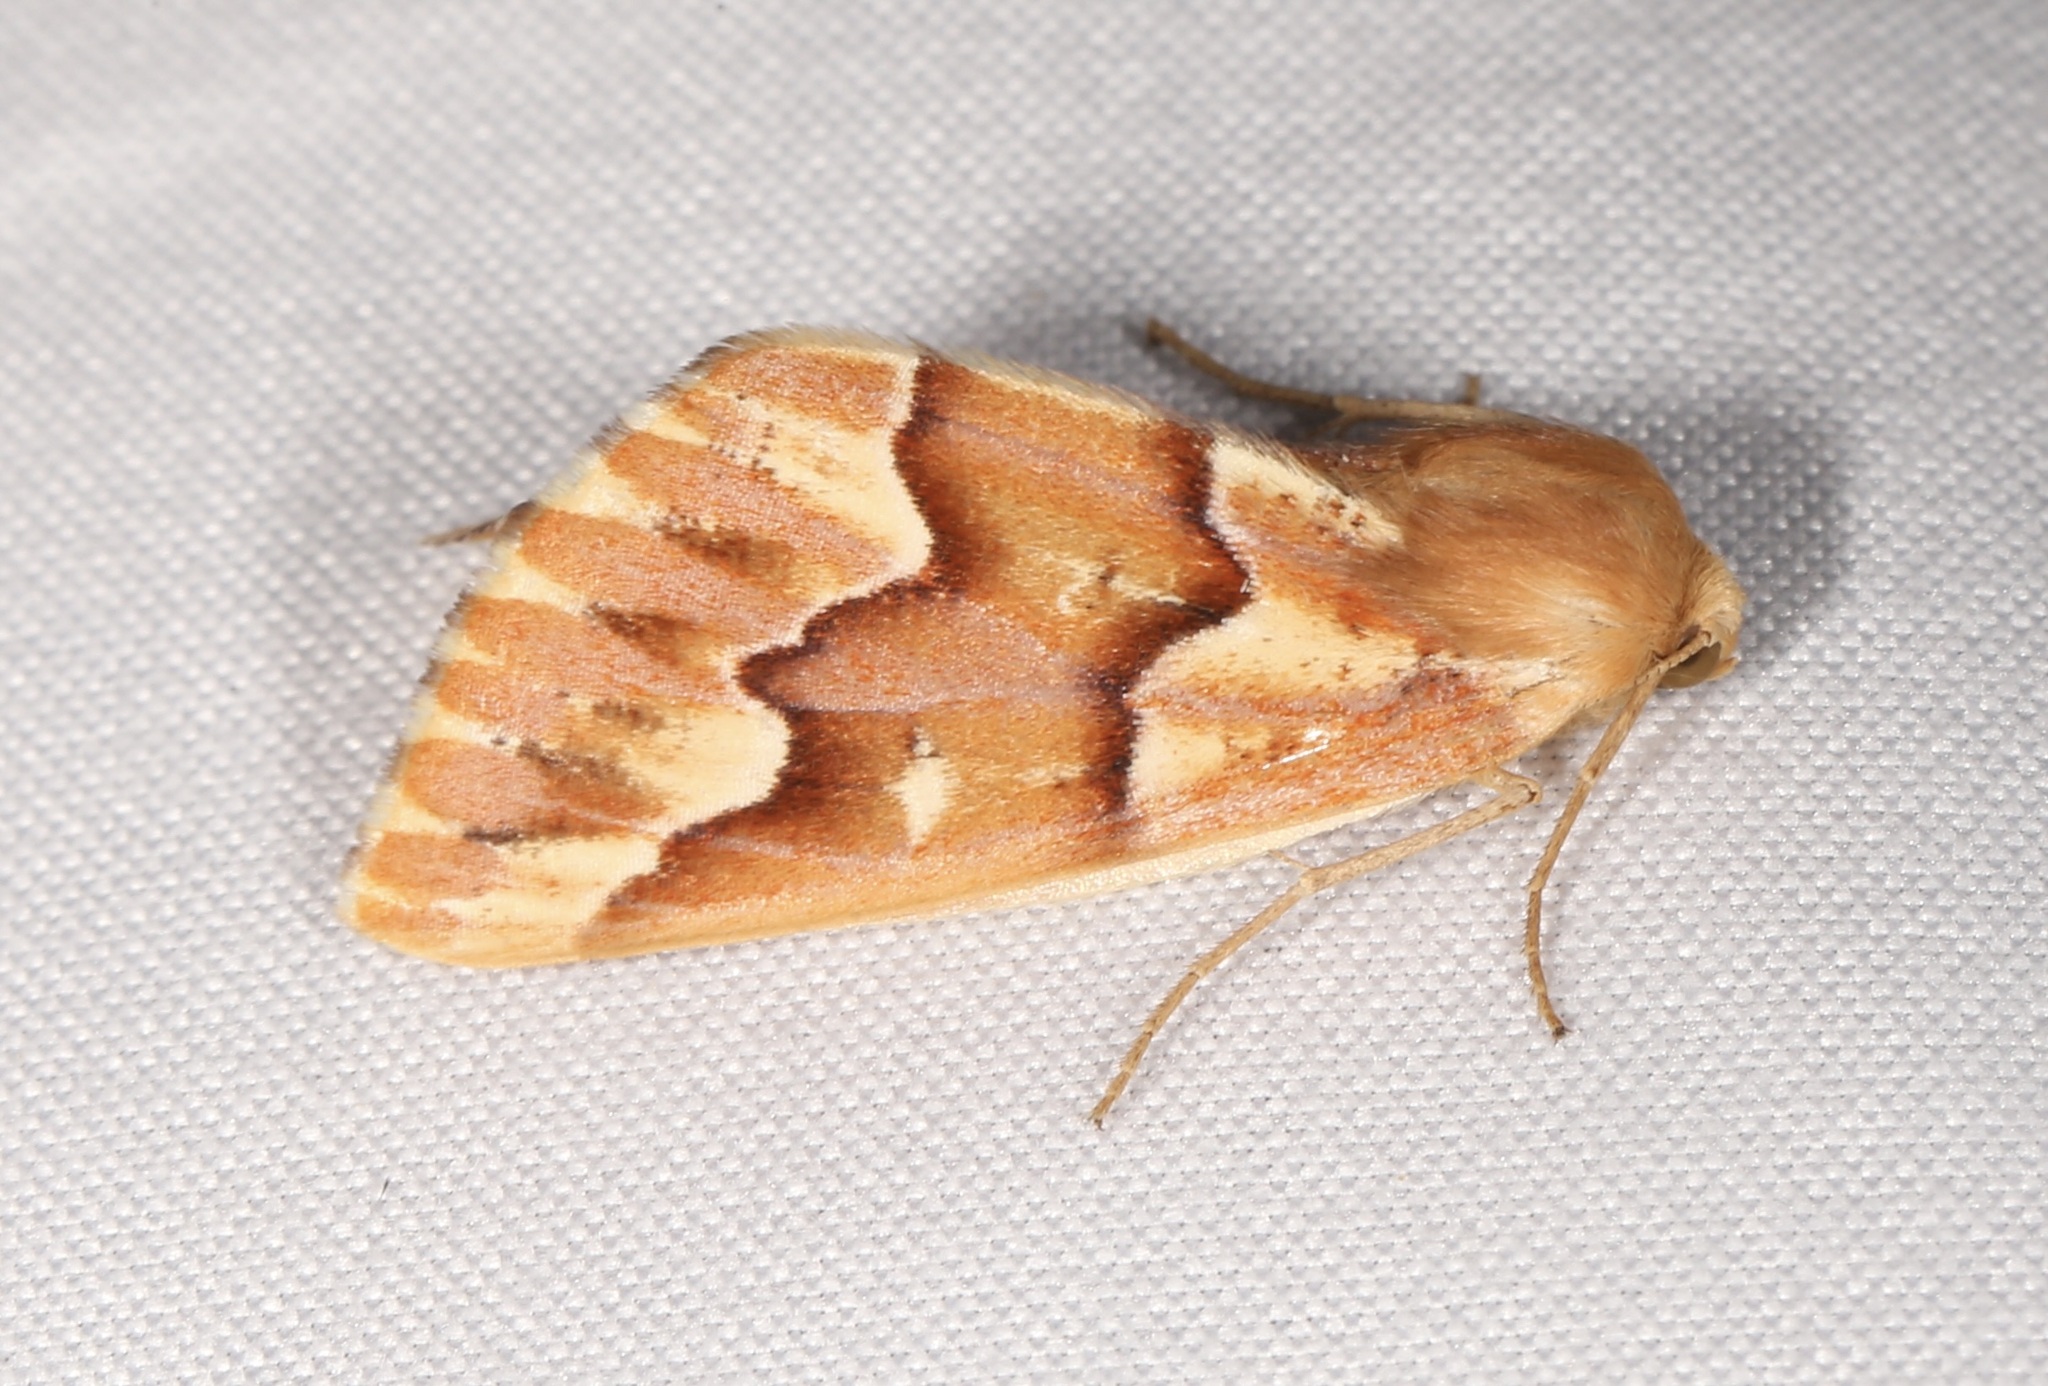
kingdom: Animalia
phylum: Arthropoda
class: Insecta
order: Lepidoptera
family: Geometridae
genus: Caripeta
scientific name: Caripeta aequaliaria
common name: Red girdle moth
